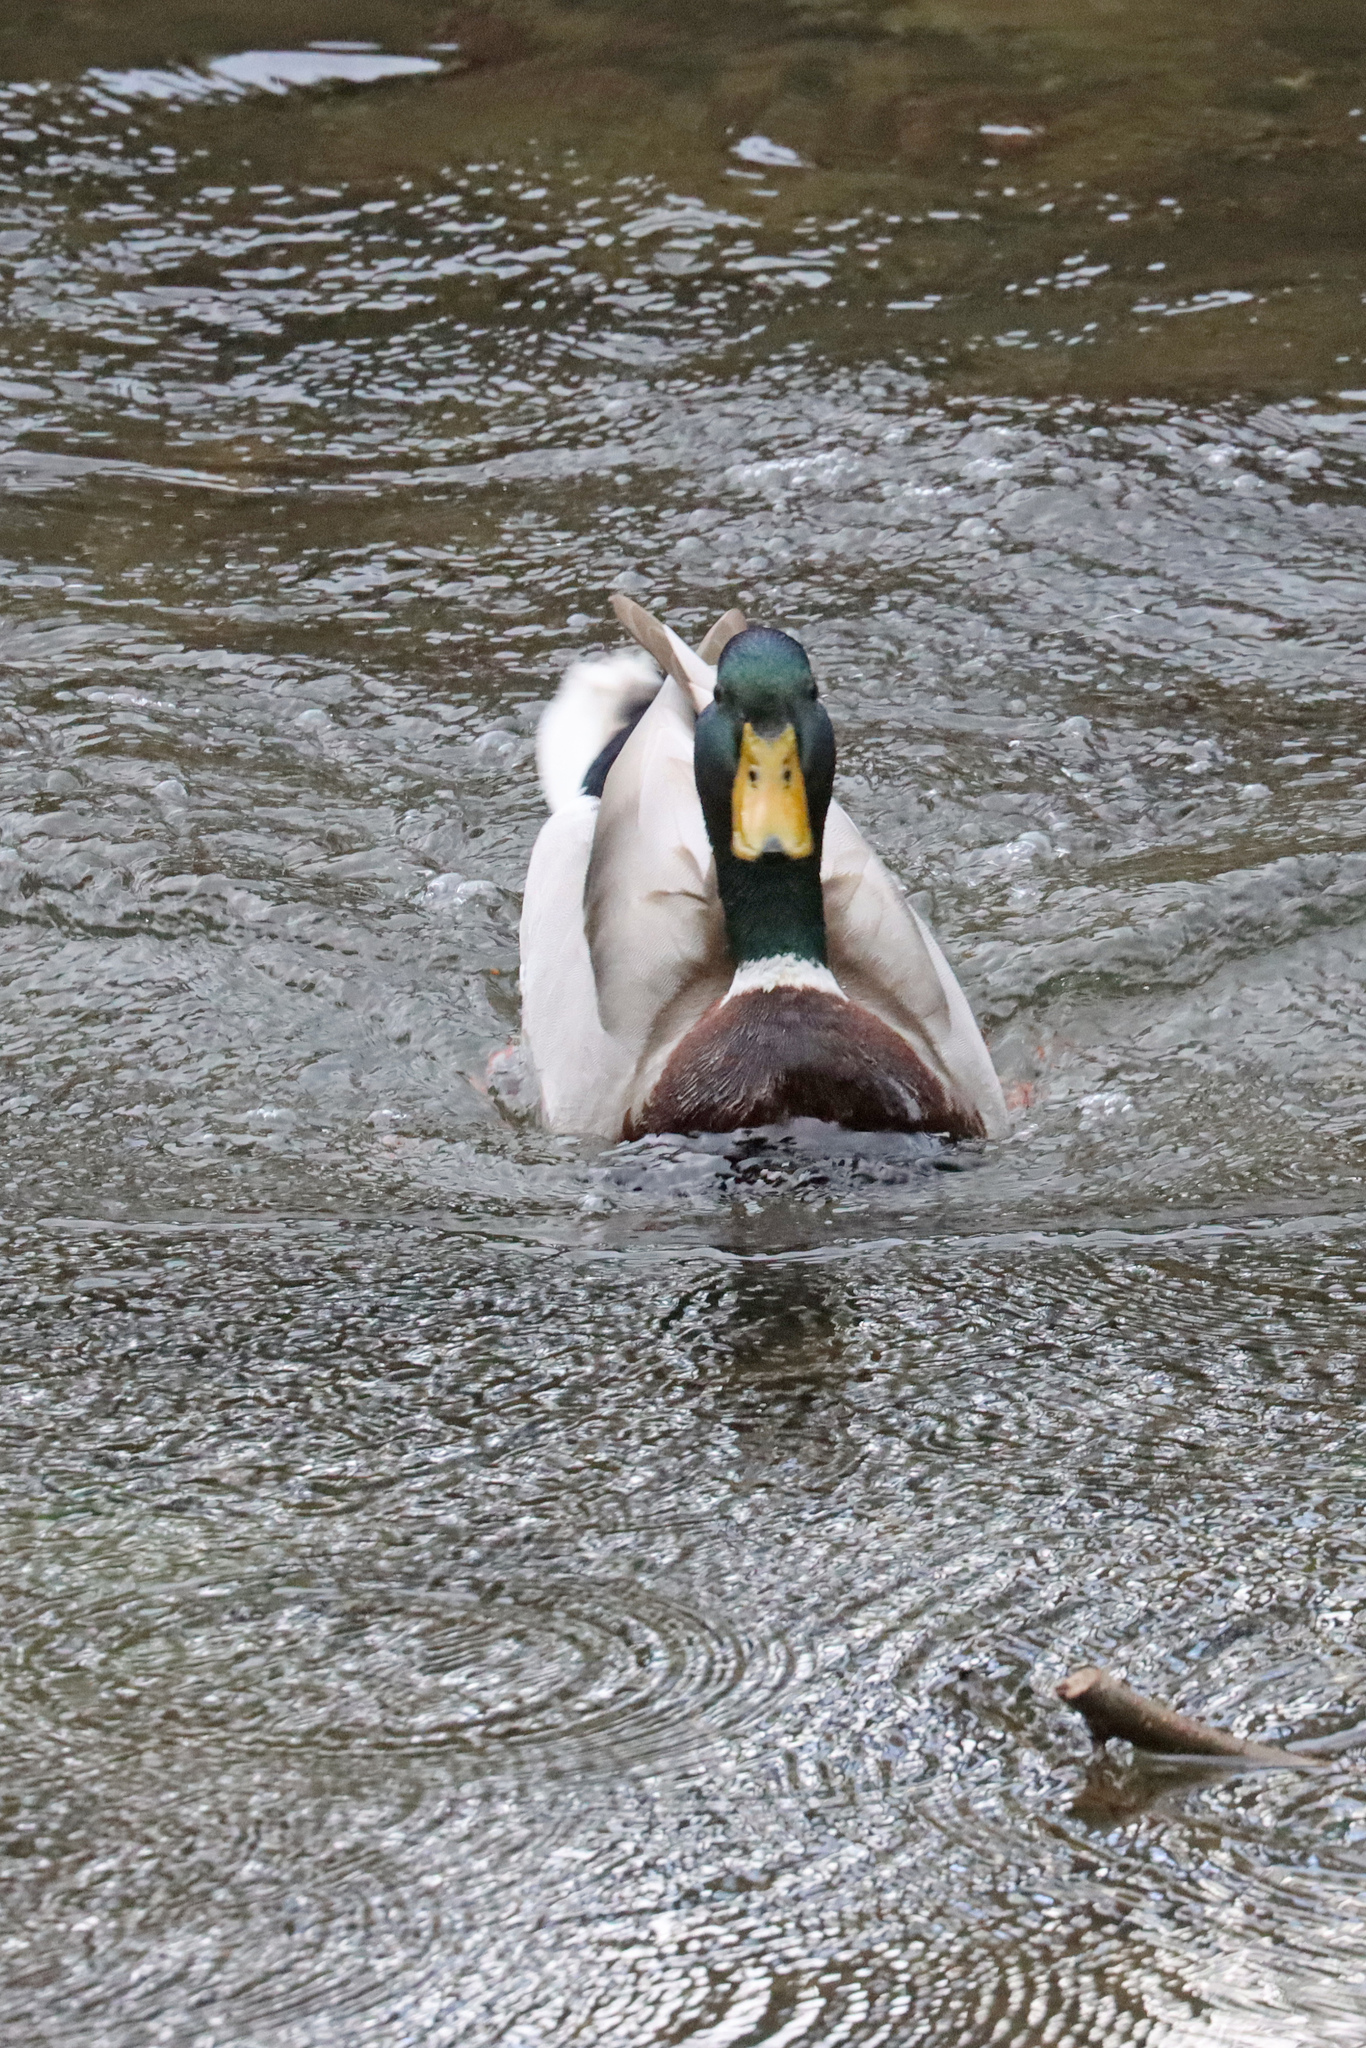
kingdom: Animalia
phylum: Chordata
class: Aves
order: Anseriformes
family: Anatidae
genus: Anas
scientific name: Anas platyrhynchos
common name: Mallard
